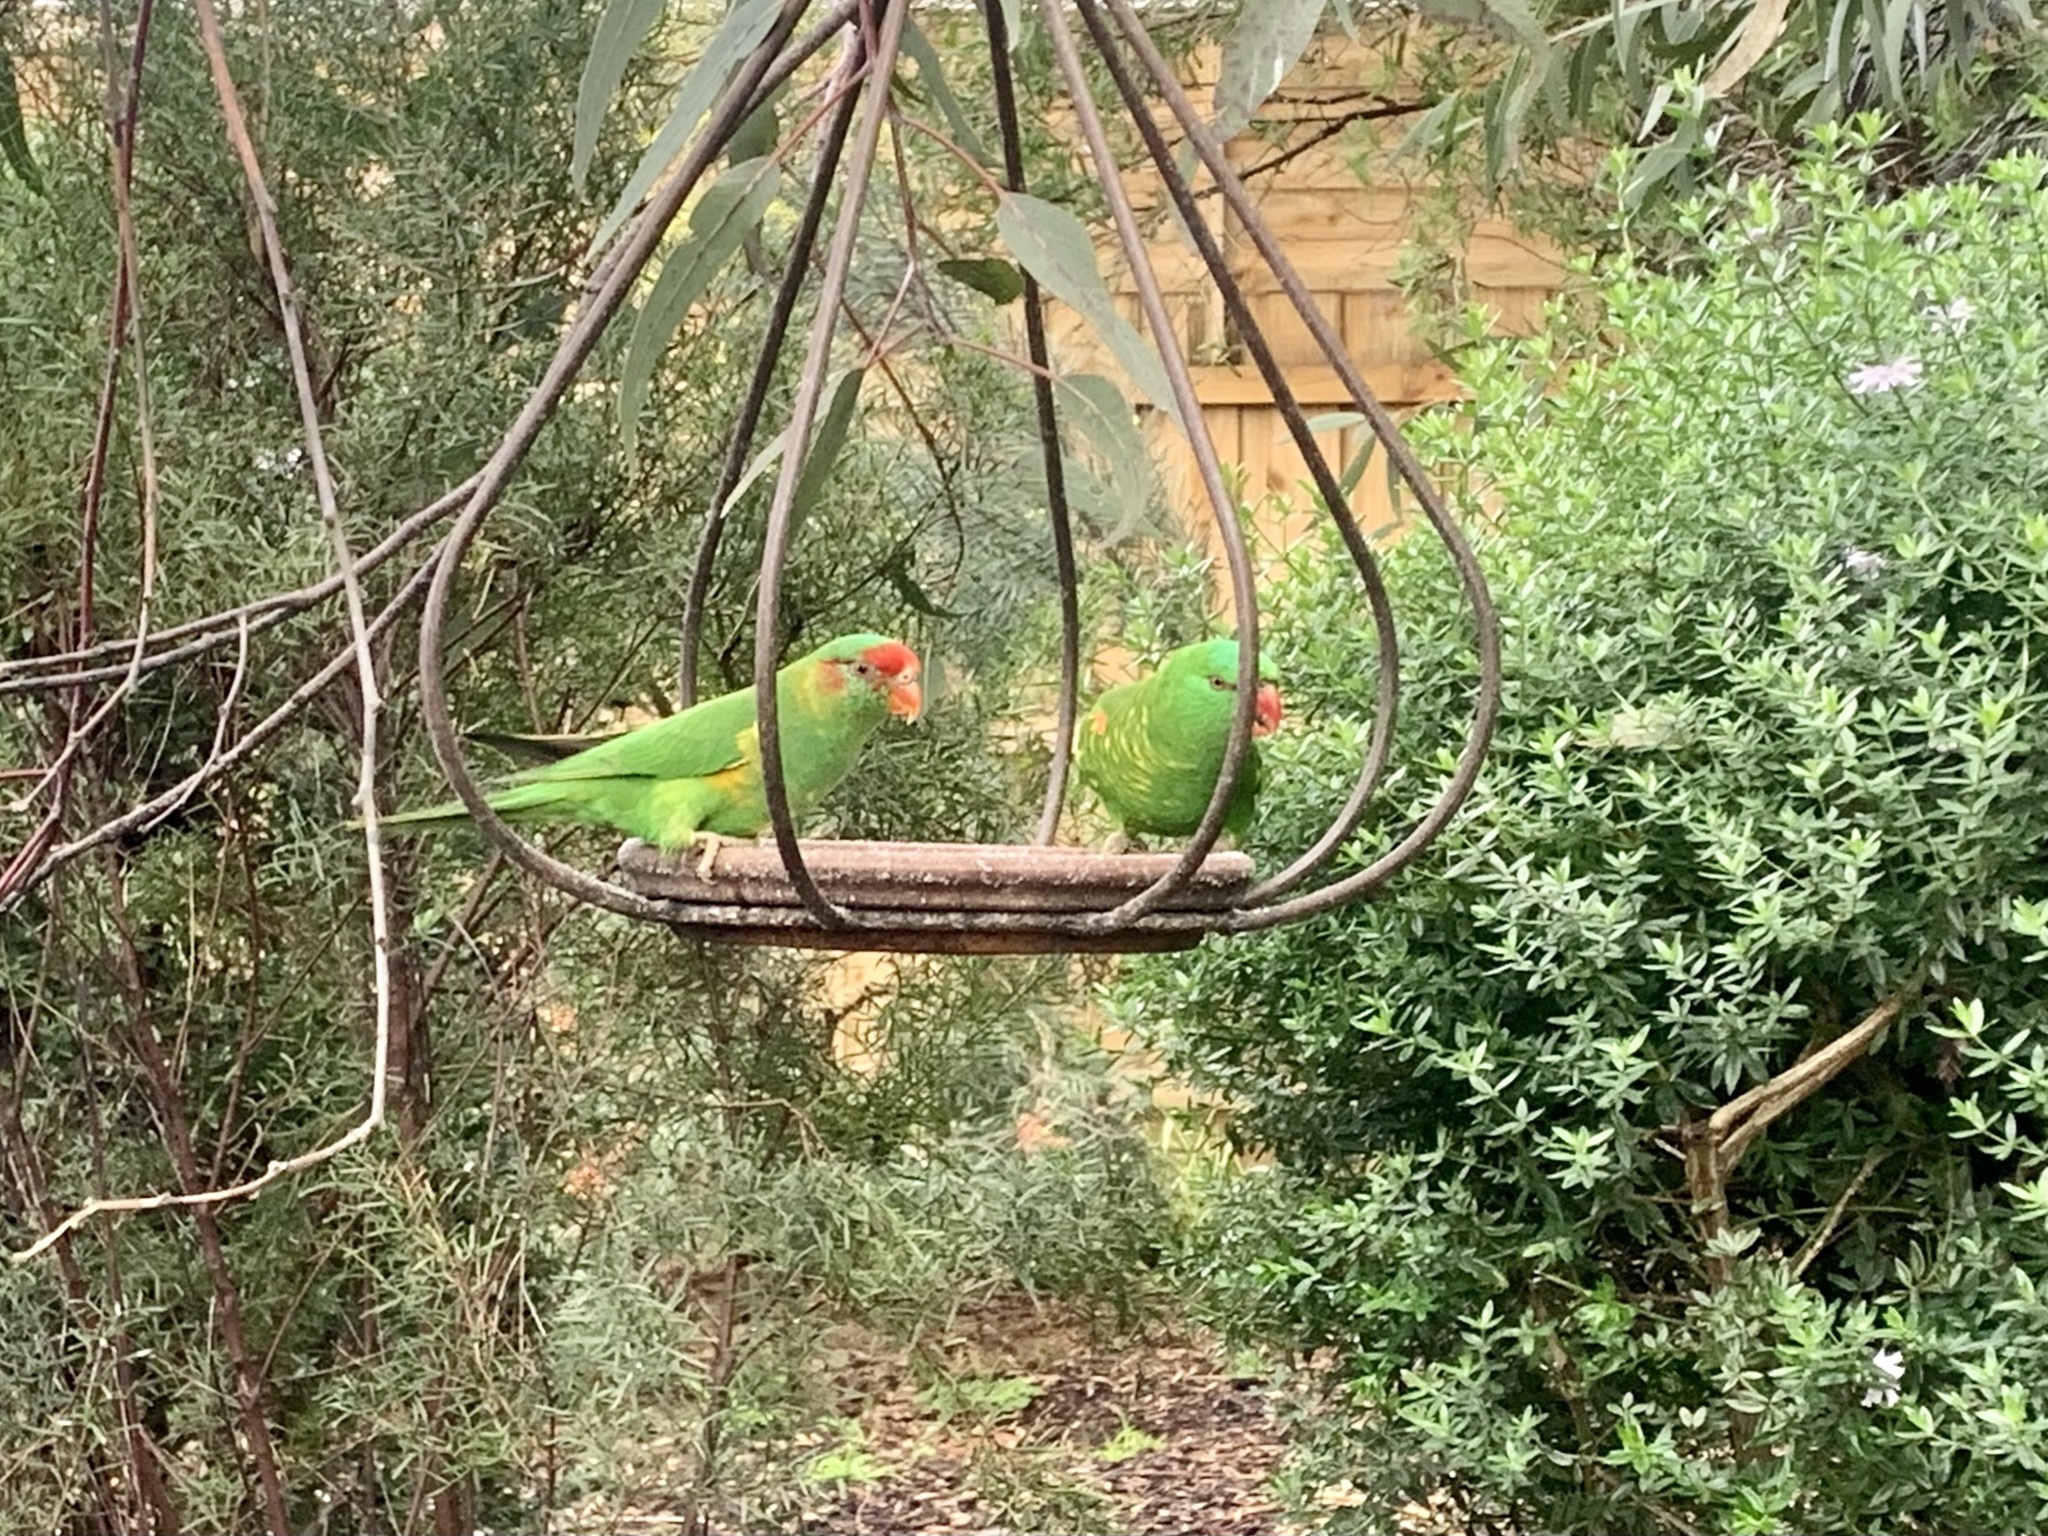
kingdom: Animalia
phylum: Chordata
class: Aves
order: Psittaciformes
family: Psittacidae
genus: Trichoglossus
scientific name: Trichoglossus chlorolepidotus
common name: Scaly-breasted lorikeet
